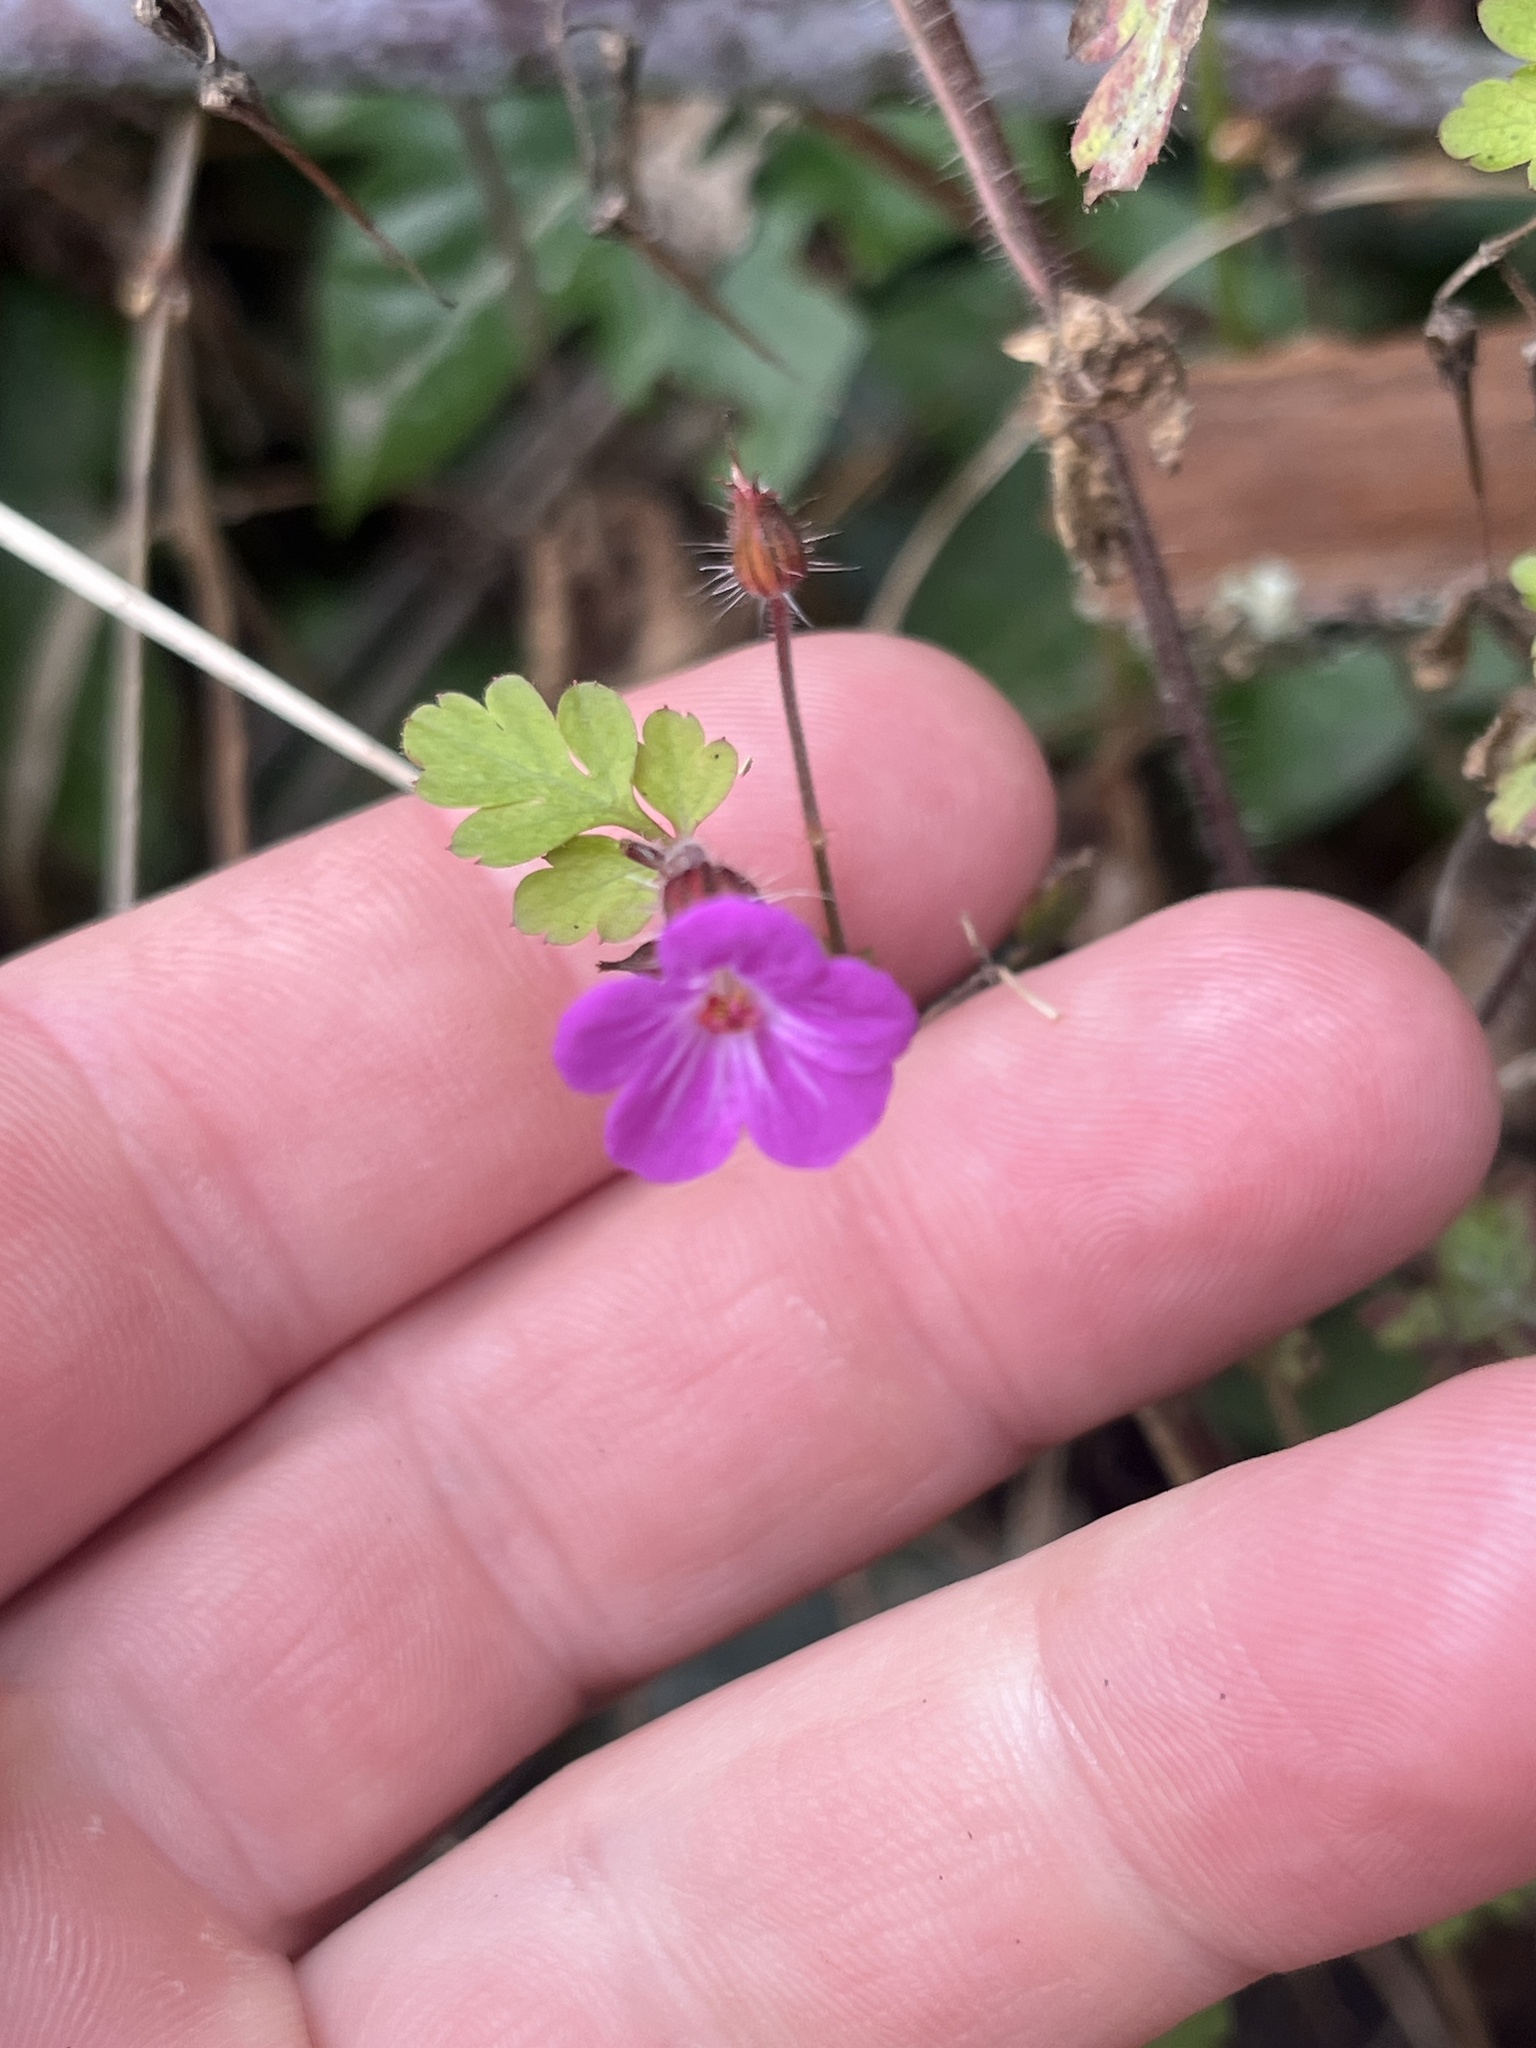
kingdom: Plantae
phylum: Tracheophyta
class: Magnoliopsida
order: Geraniales
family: Geraniaceae
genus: Geranium
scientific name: Geranium robertianum
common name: Herb-robert
